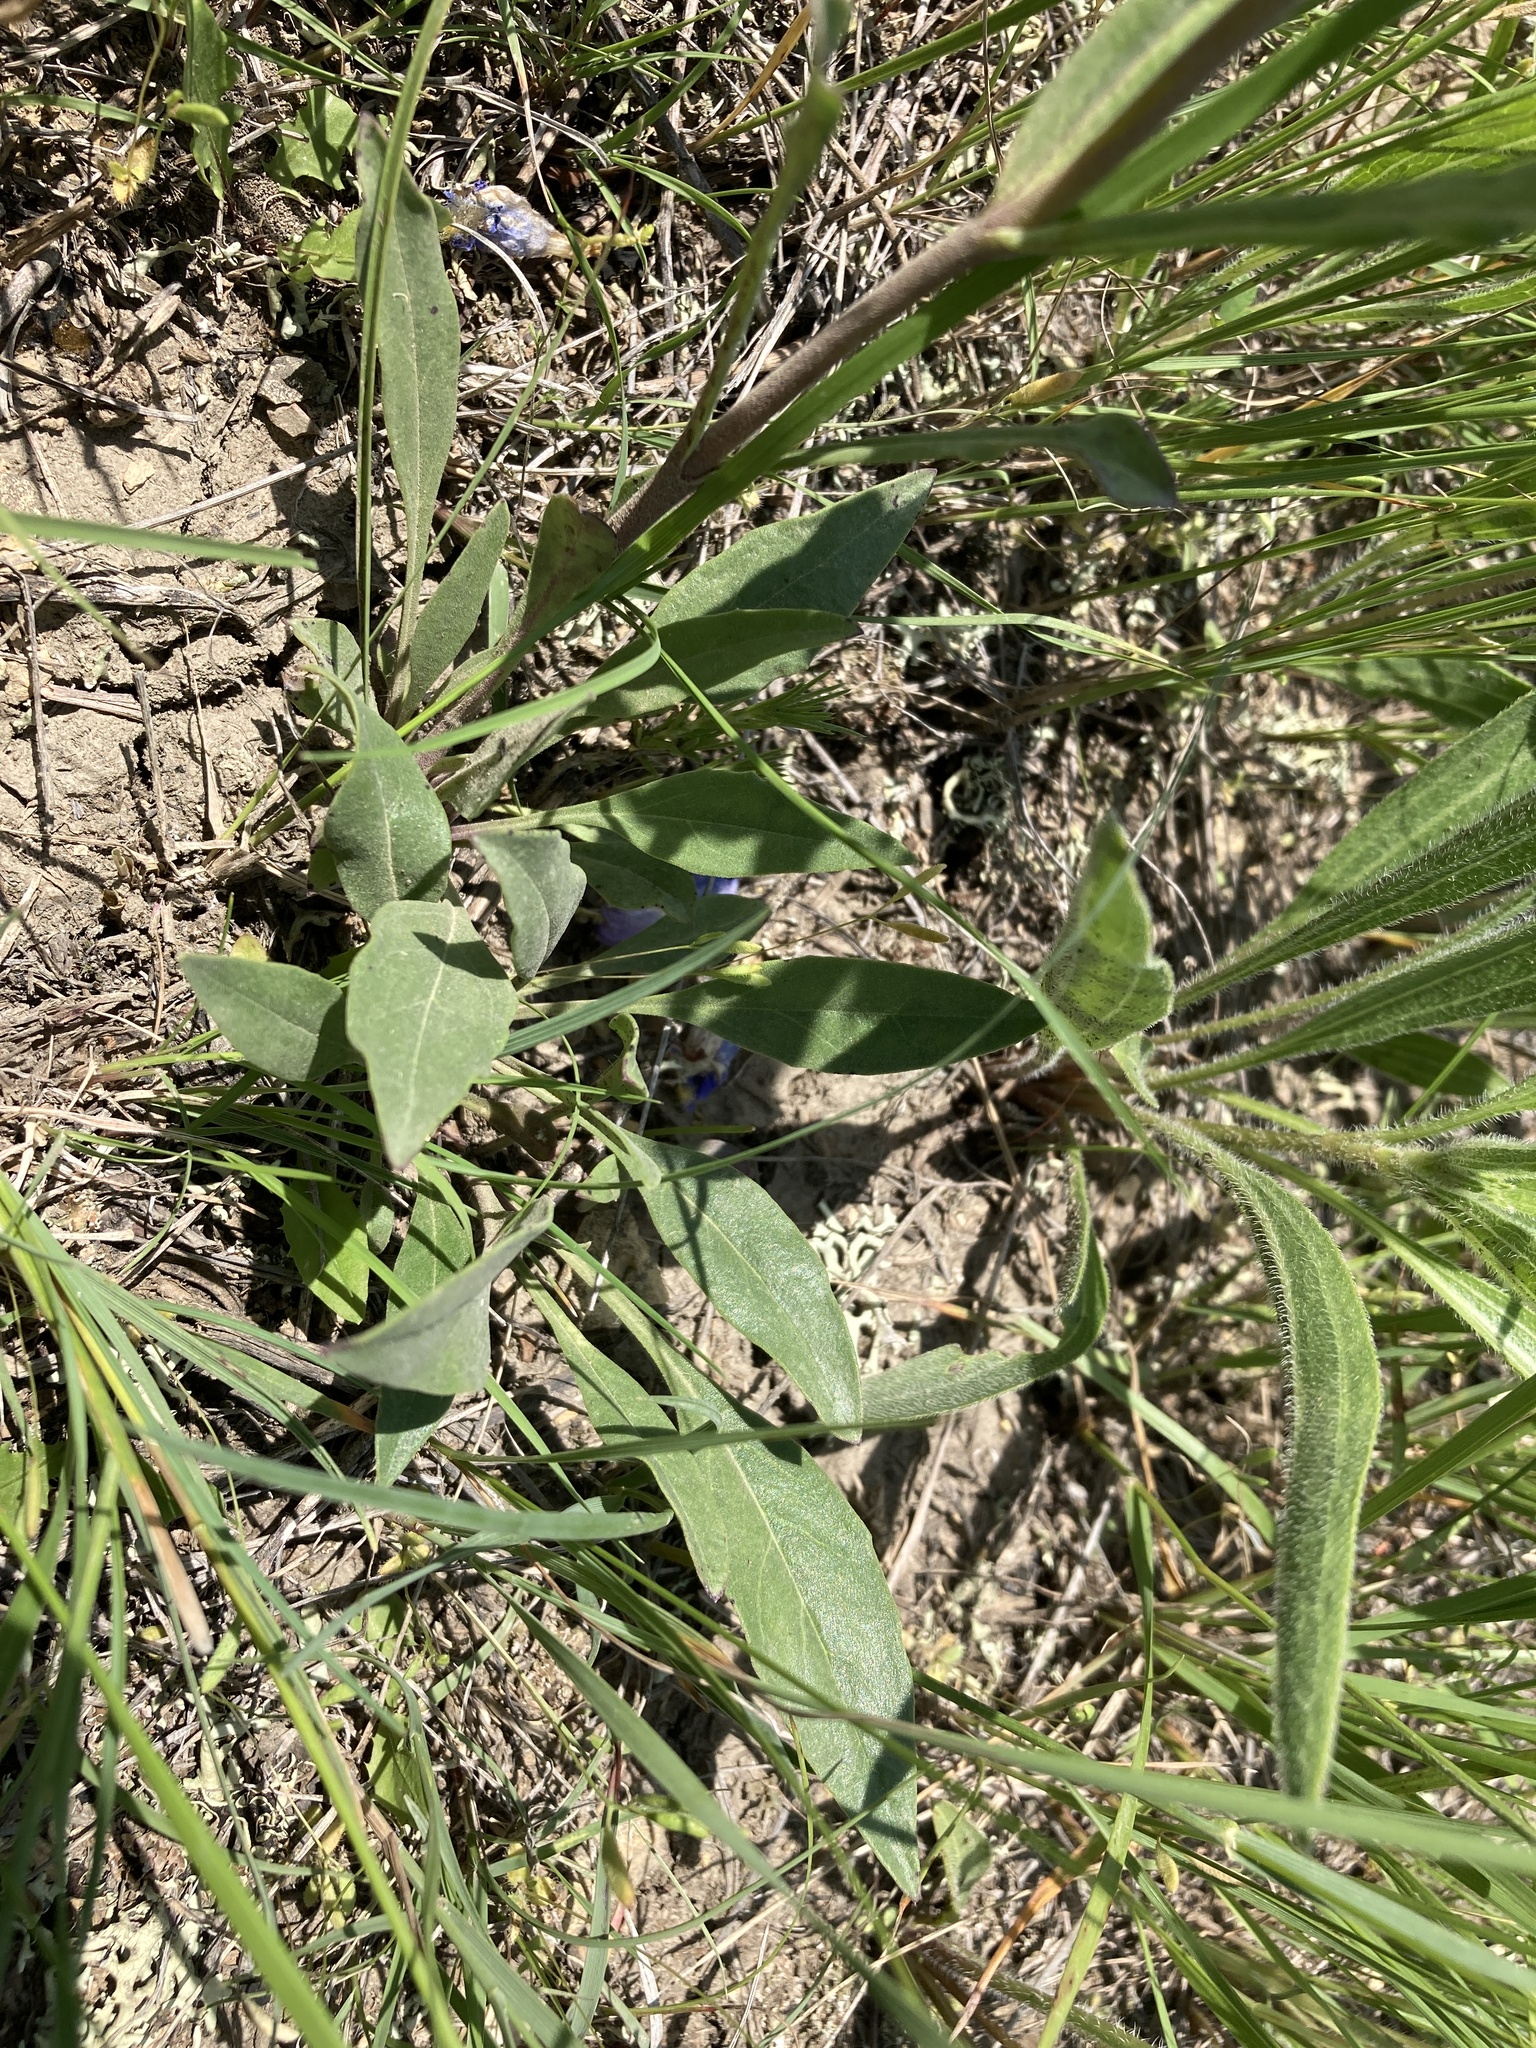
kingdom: Plantae
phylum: Tracheophyta
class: Magnoliopsida
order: Lamiales
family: Plantaginaceae
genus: Penstemon
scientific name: Penstemon eriantherus
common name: Crested beardtongue
